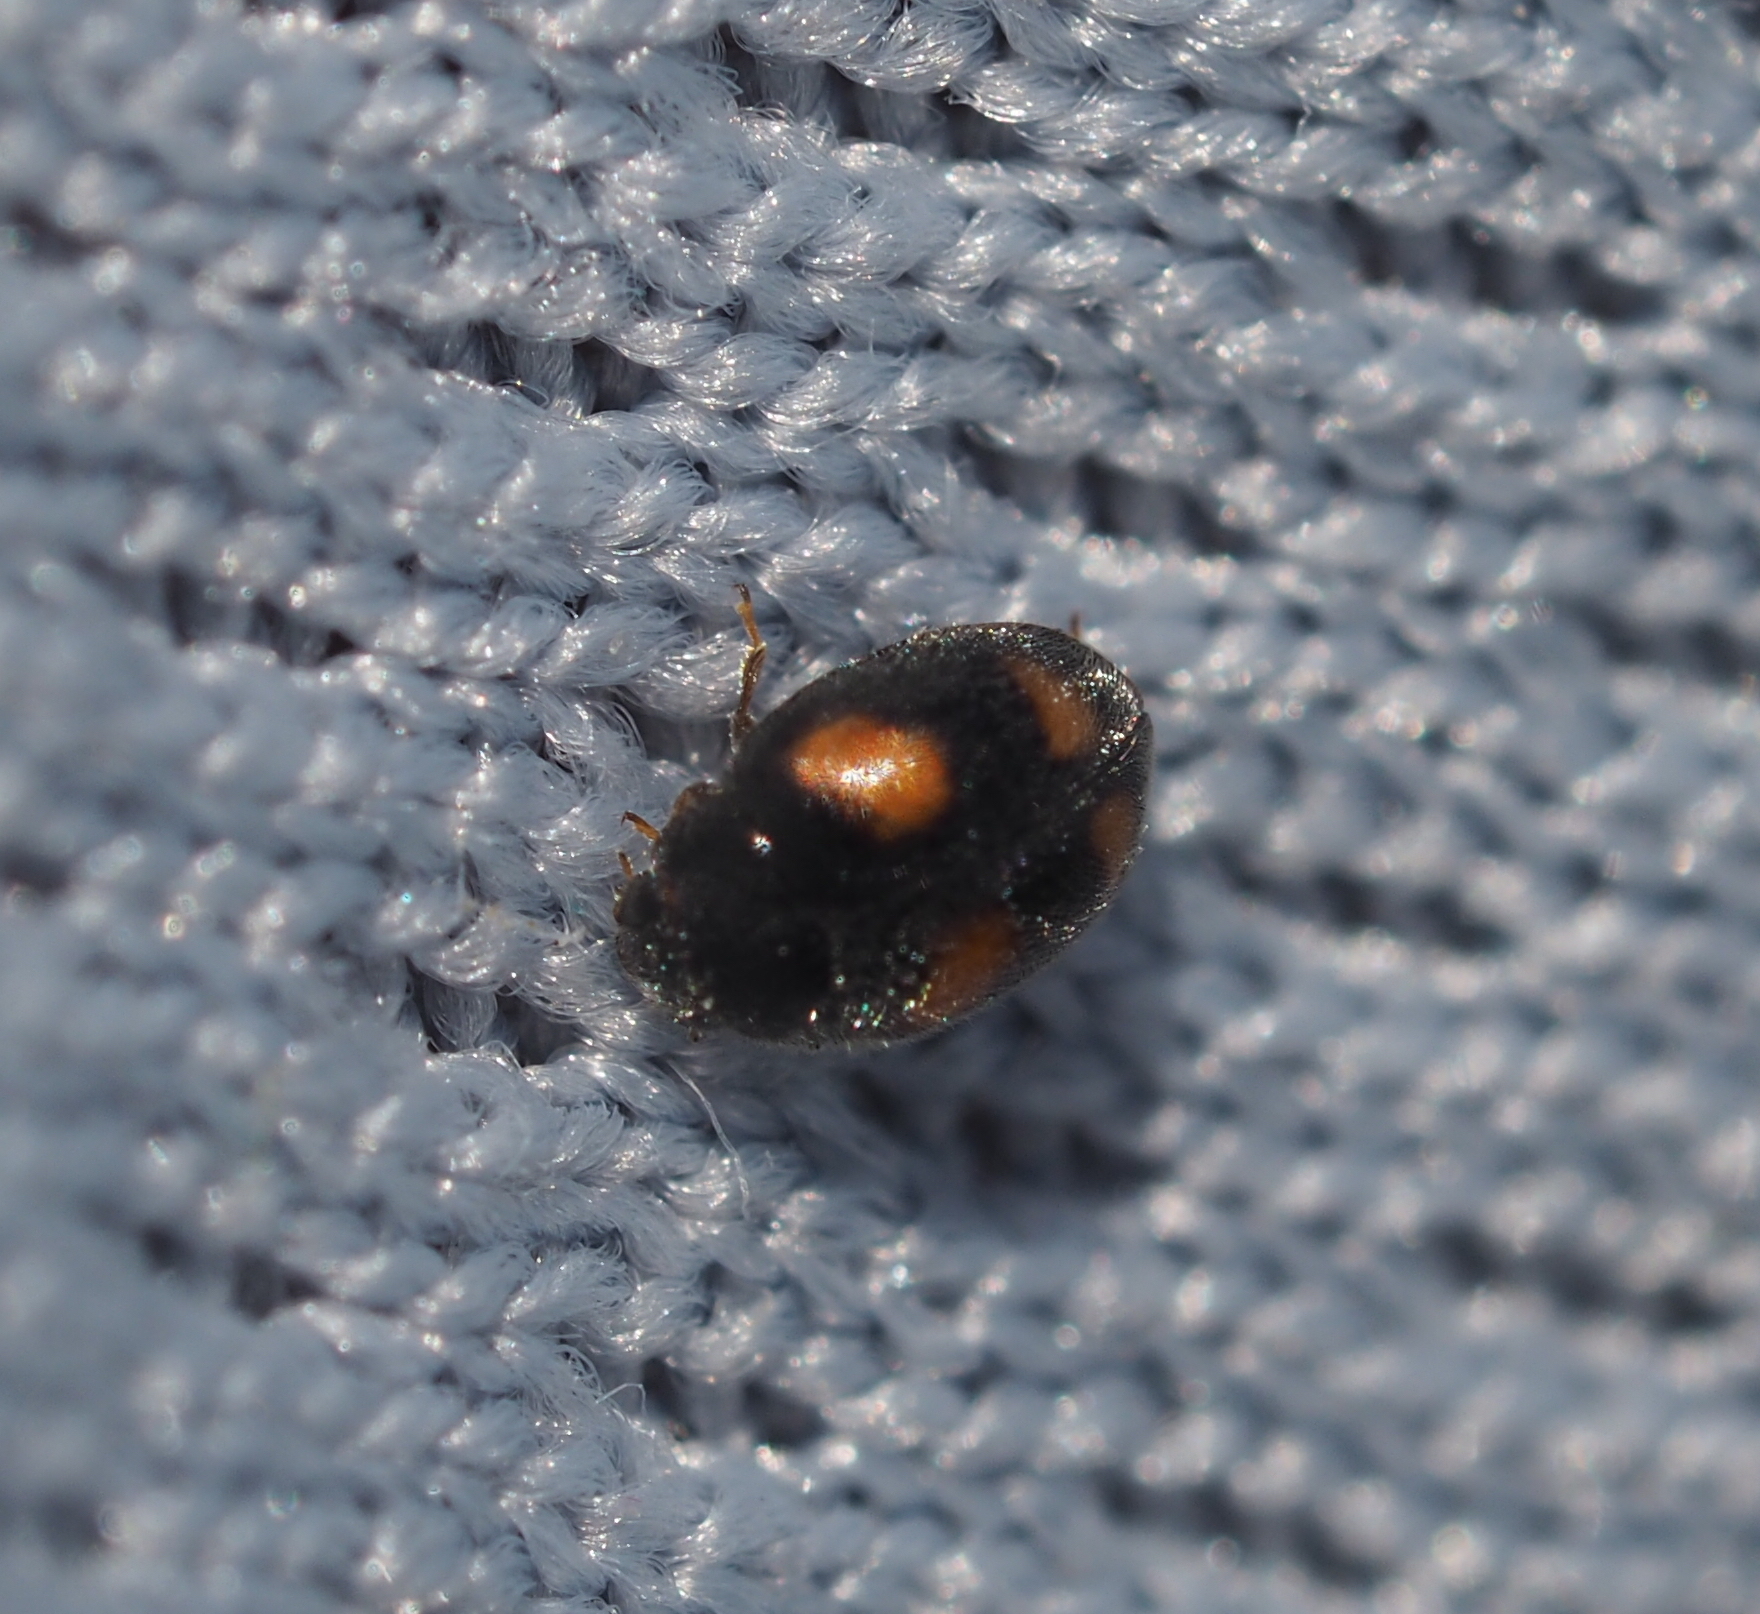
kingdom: Animalia
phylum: Arthropoda
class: Insecta
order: Coleoptera
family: Coccinellidae
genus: Nephus
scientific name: Nephus quadrimaculatus
